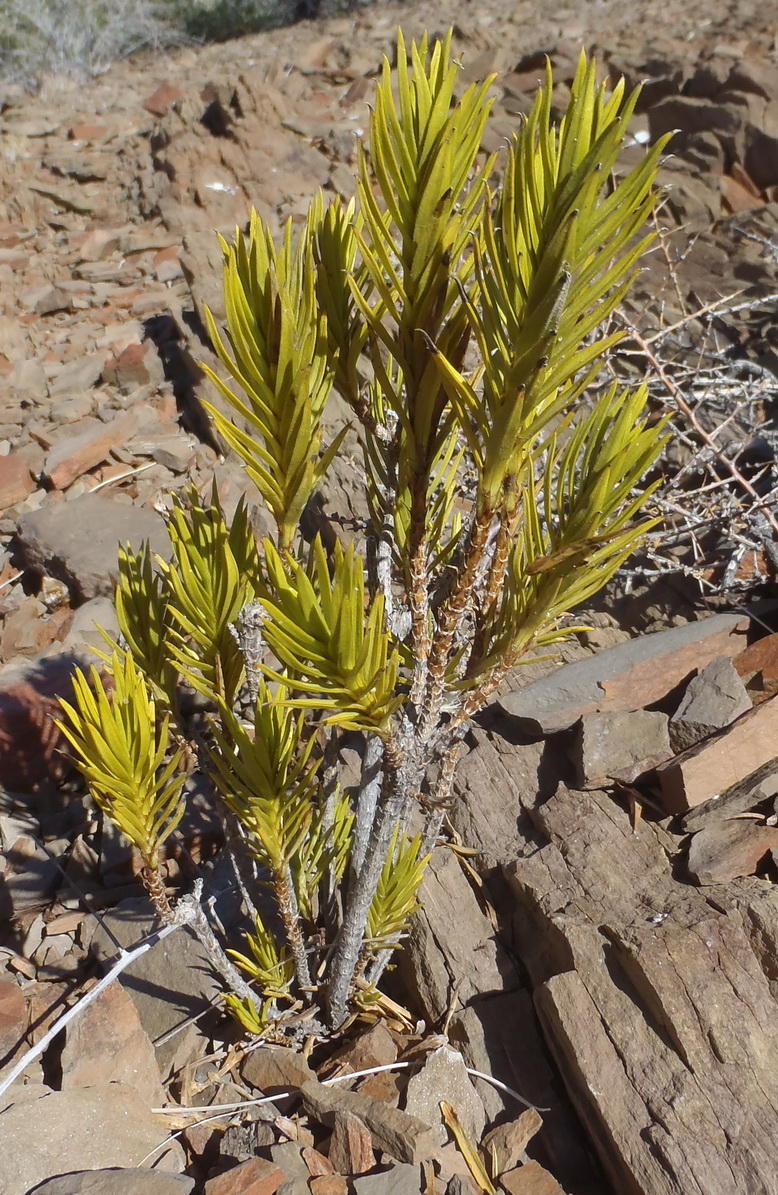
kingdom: Plantae
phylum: Tracheophyta
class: Magnoliopsida
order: Asterales
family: Asteraceae
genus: Pteronia
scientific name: Pteronia fasciculata
